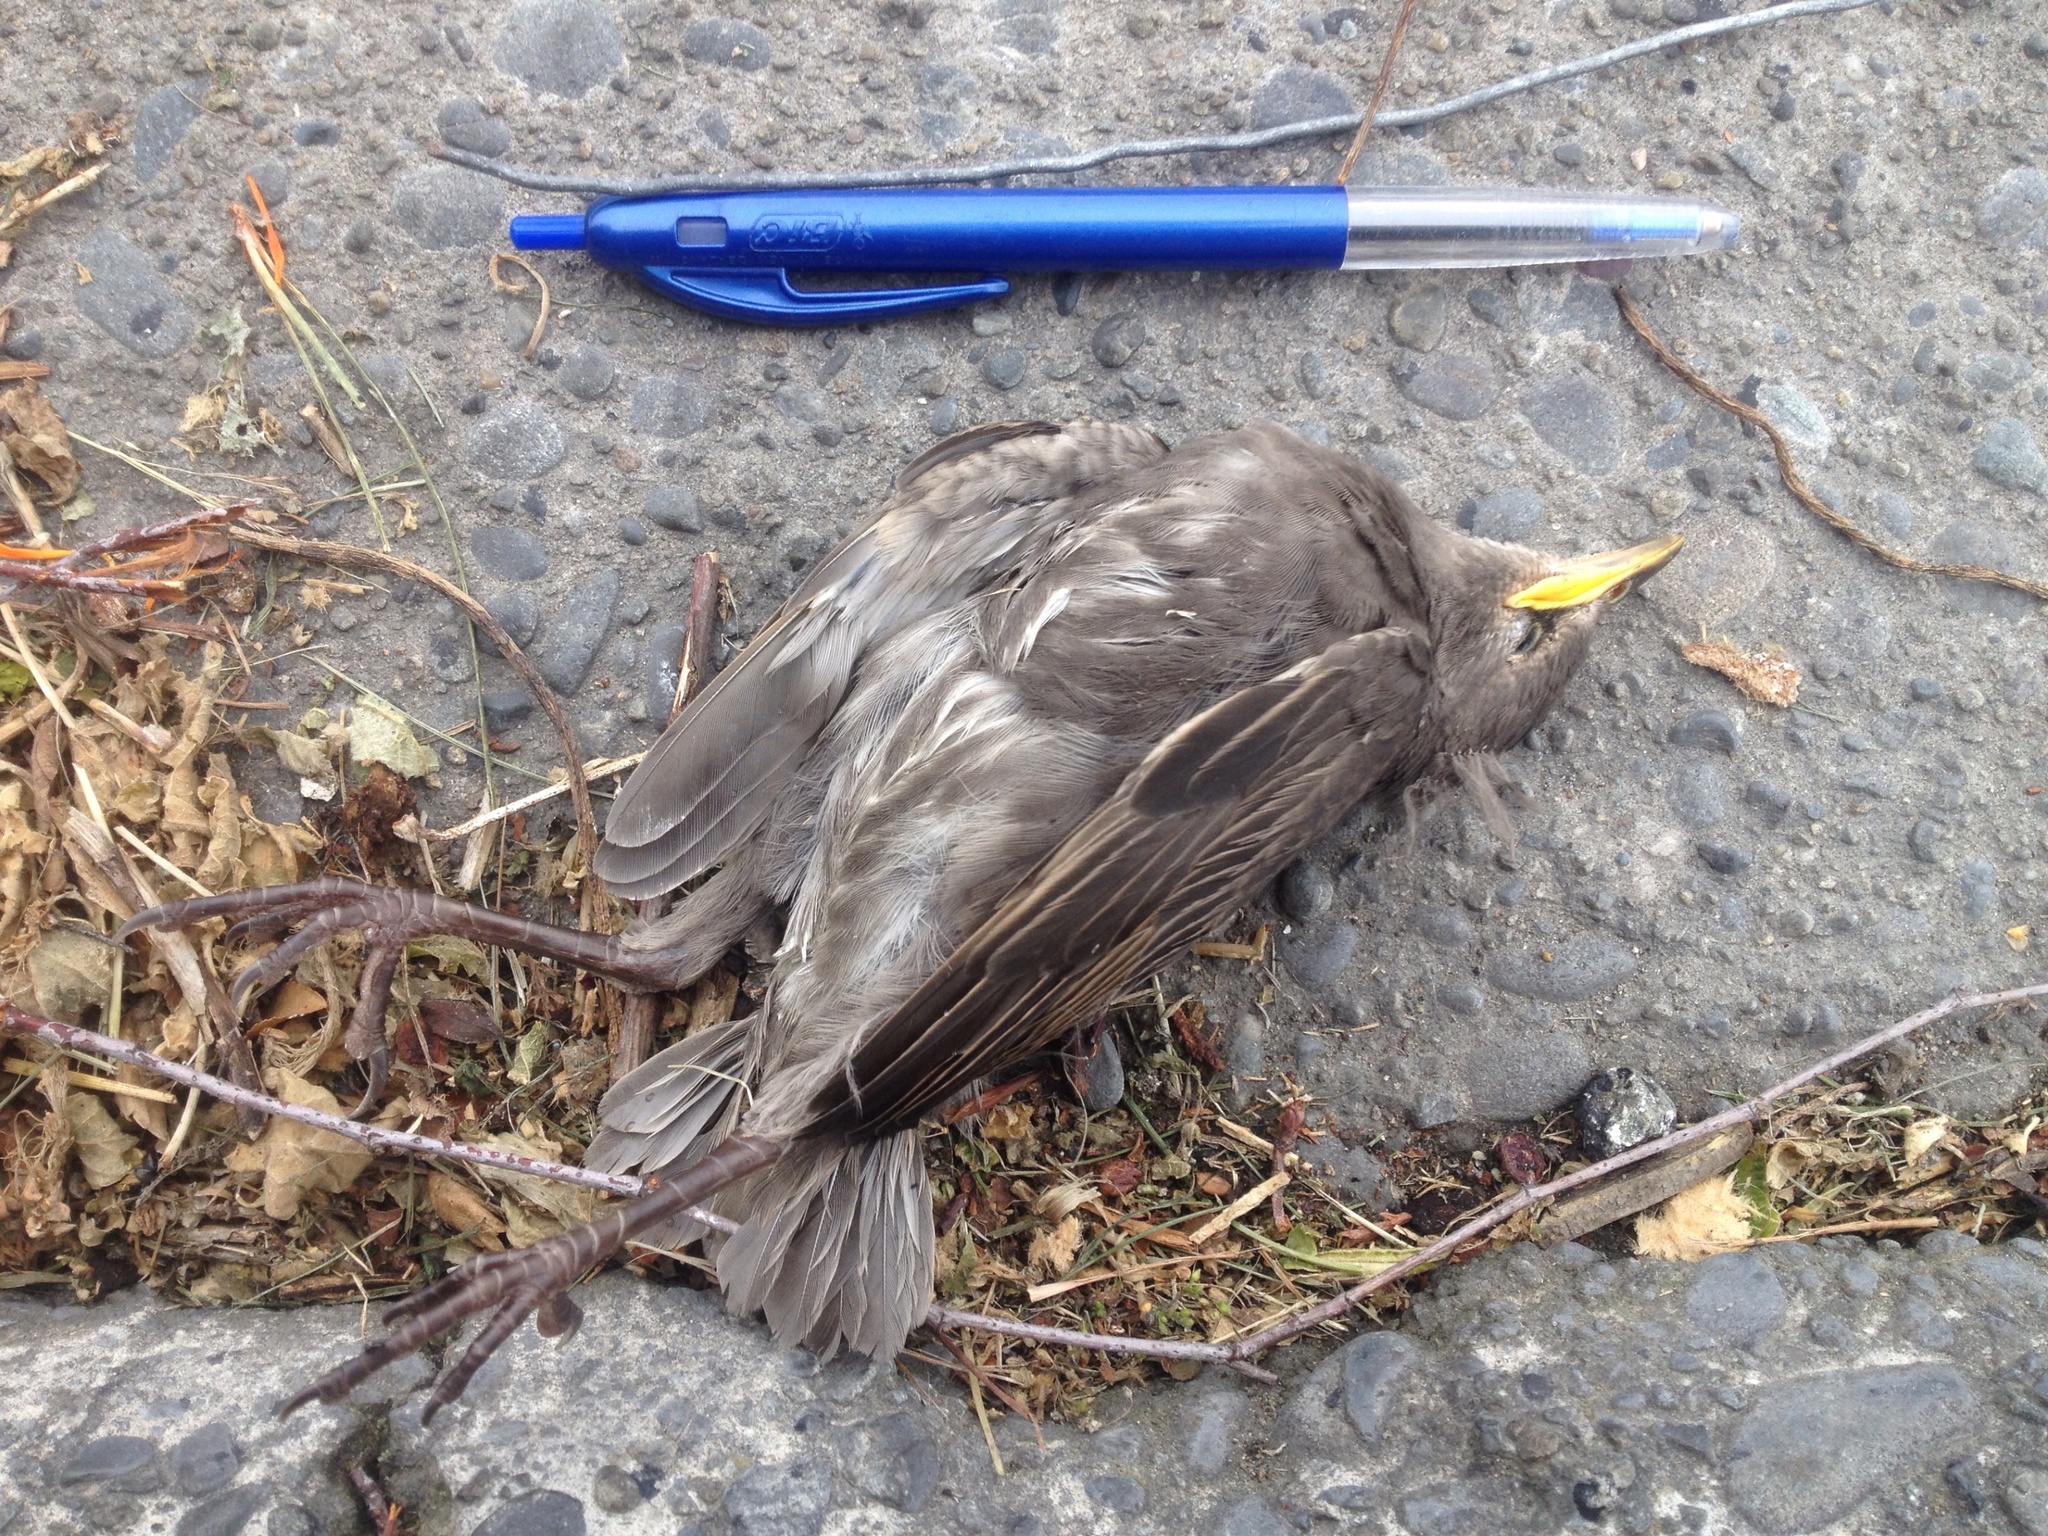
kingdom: Animalia
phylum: Chordata
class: Aves
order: Passeriformes
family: Sturnidae
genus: Sturnus
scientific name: Sturnus vulgaris
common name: Common starling
